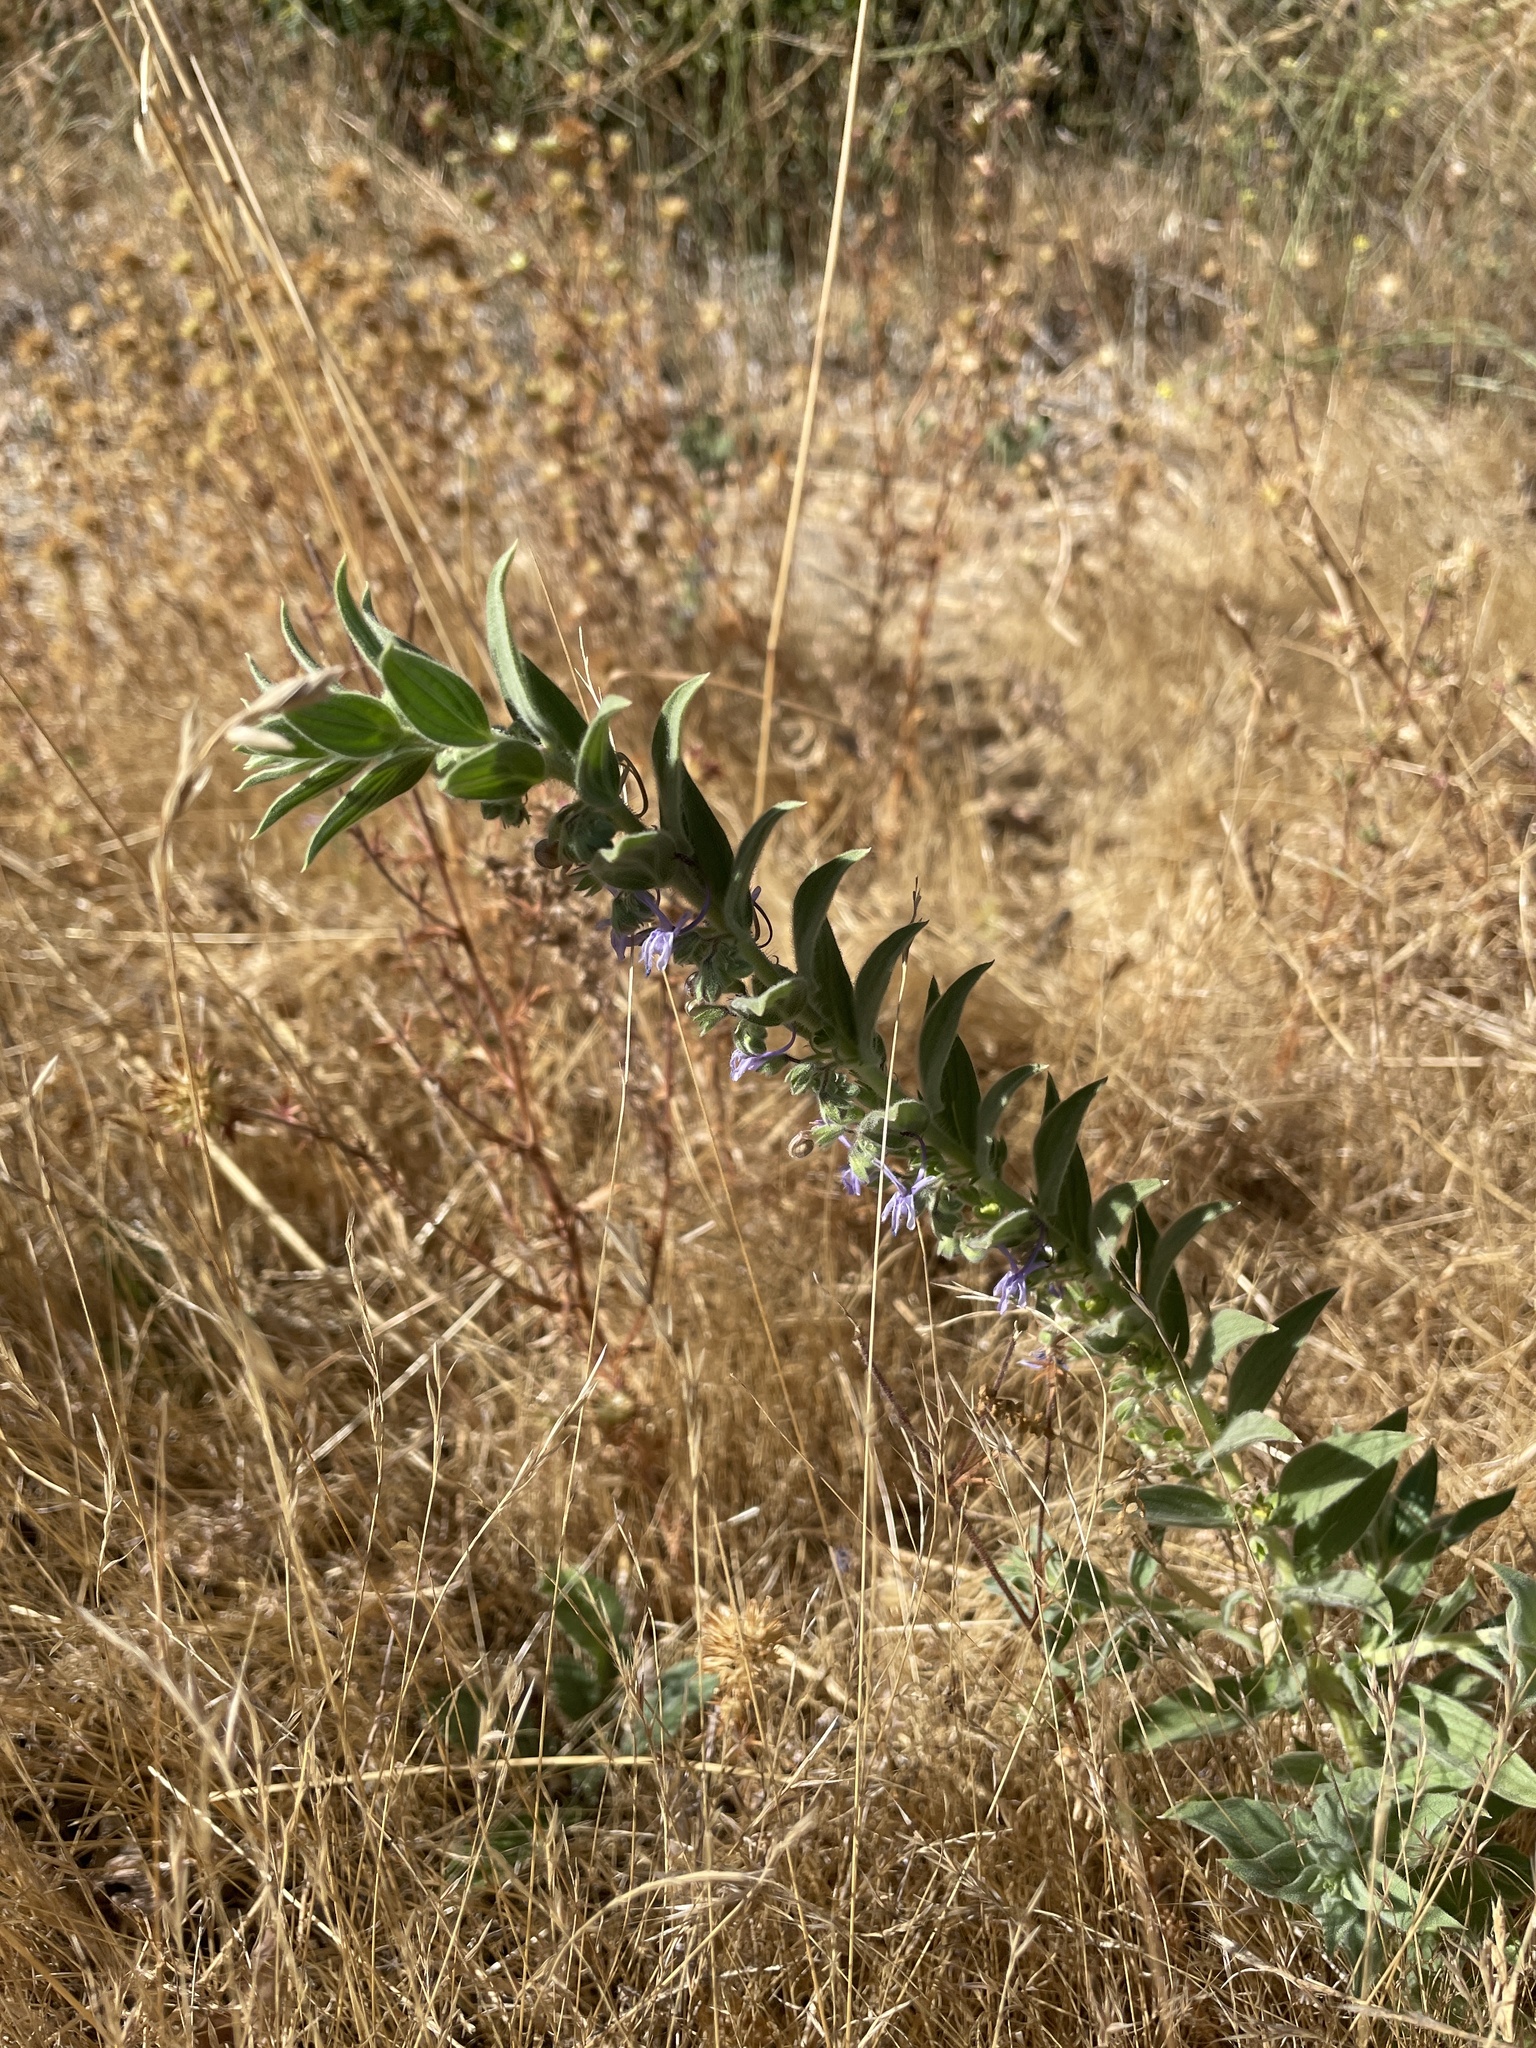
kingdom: Plantae
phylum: Tracheophyta
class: Magnoliopsida
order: Lamiales
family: Lamiaceae
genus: Trichostema
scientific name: Trichostema lanceolatum
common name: Vinegar-weed
